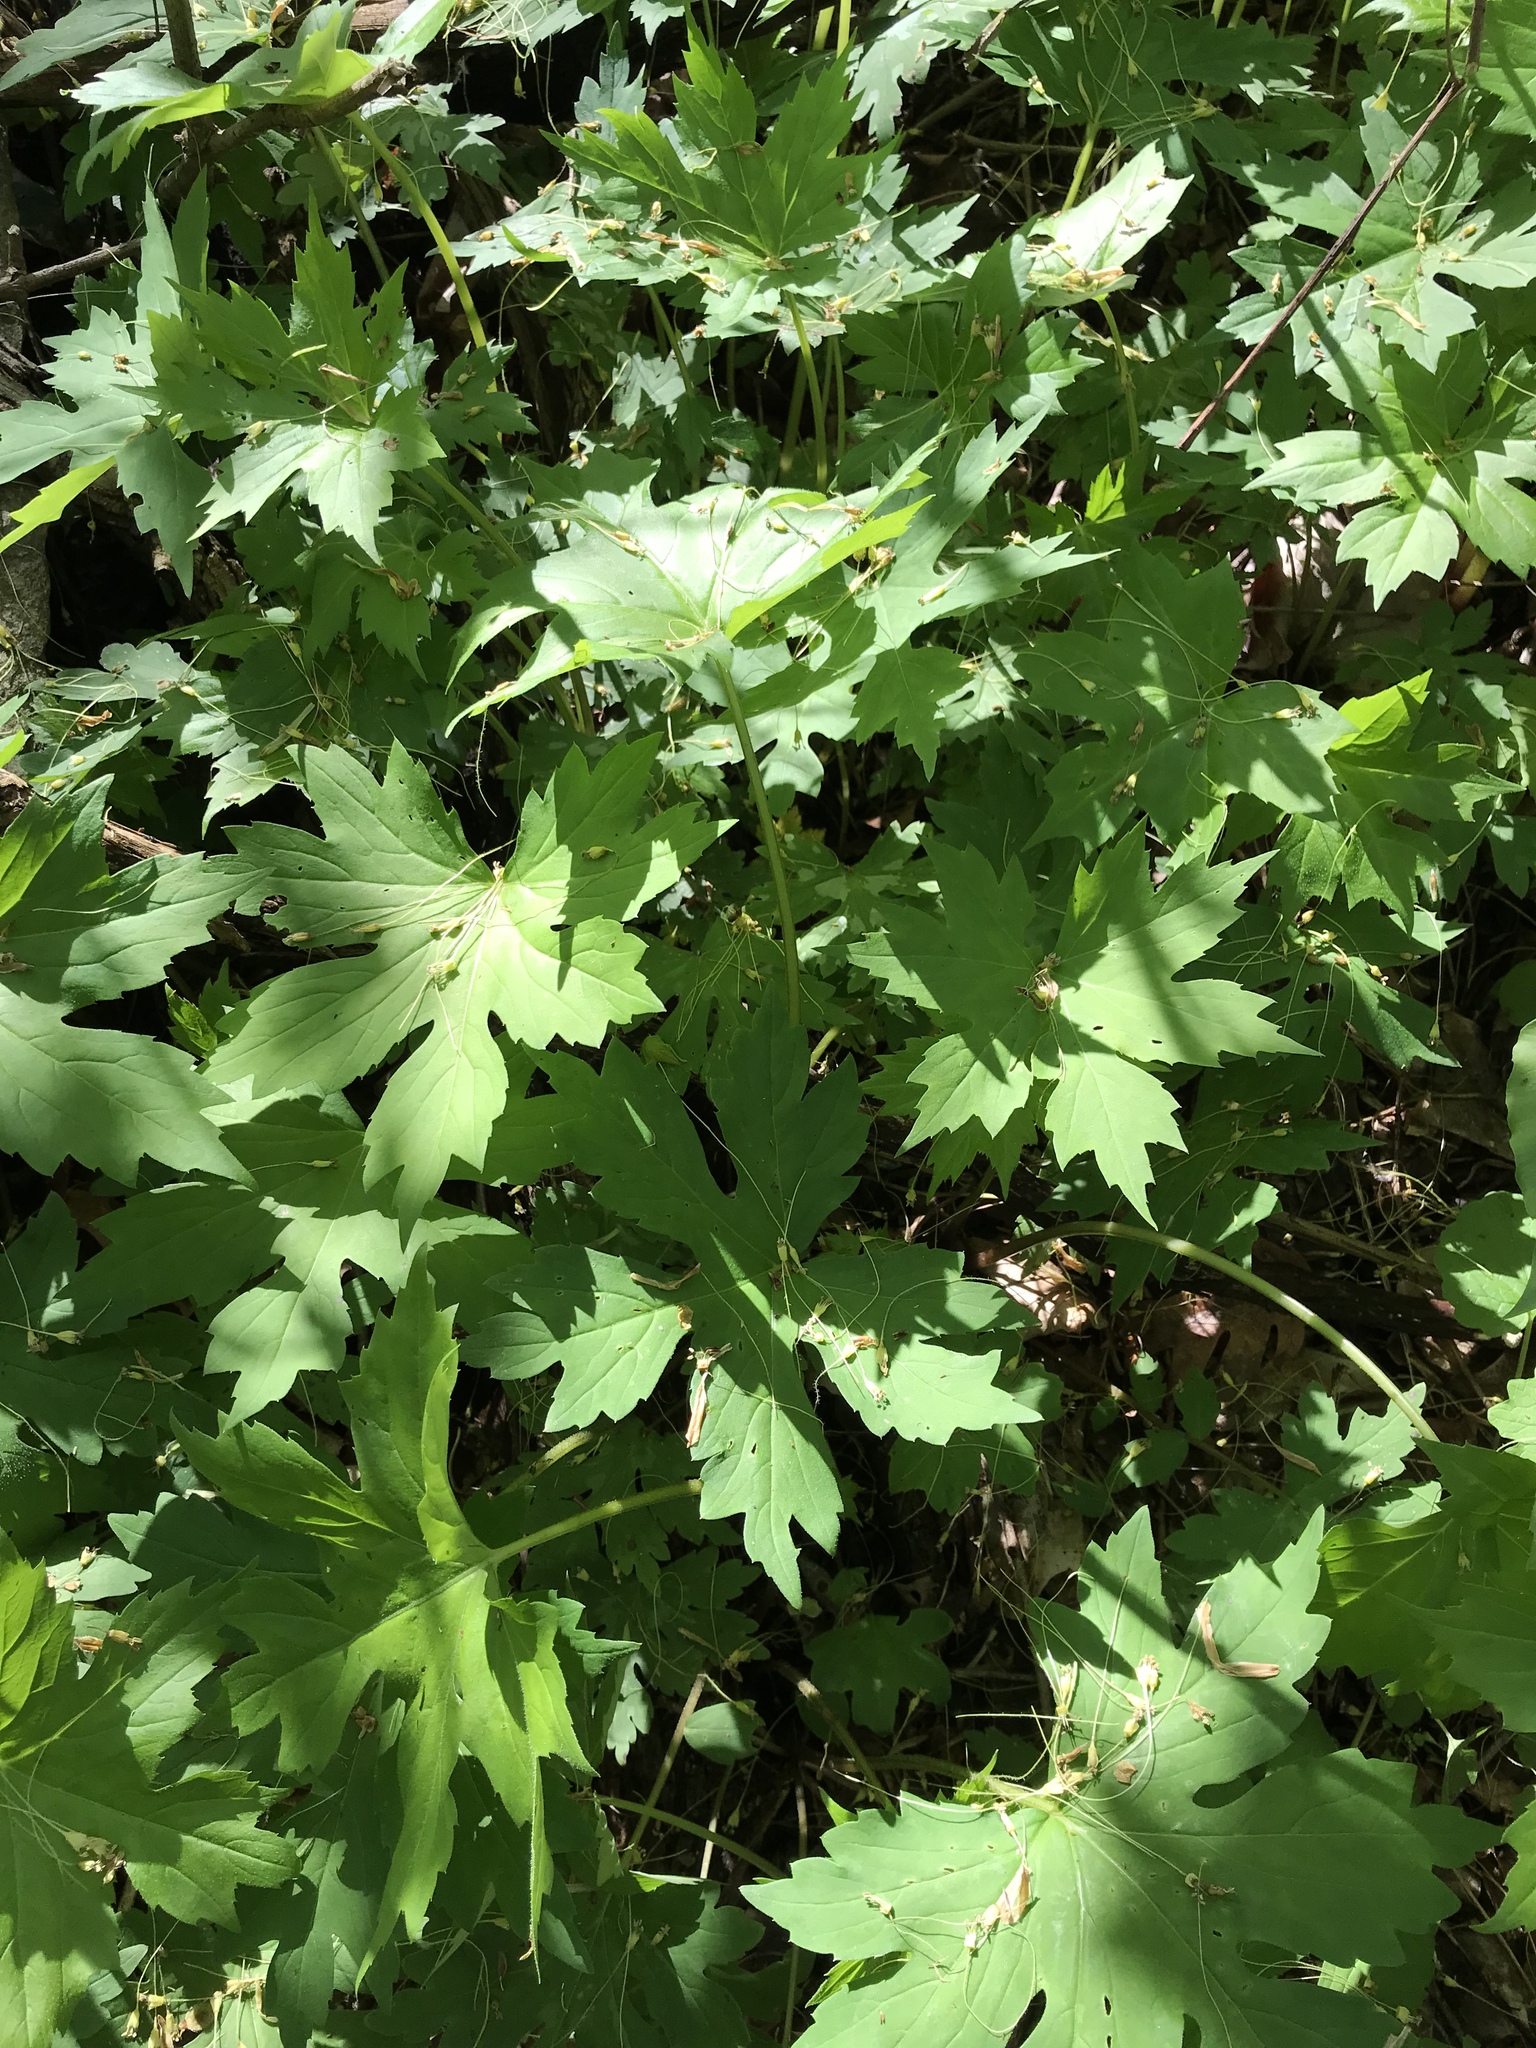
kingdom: Plantae
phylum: Tracheophyta
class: Magnoliopsida
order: Boraginales
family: Hydrophyllaceae
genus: Hydrophyllum
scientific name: Hydrophyllum canadense
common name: Canada waterleaf
